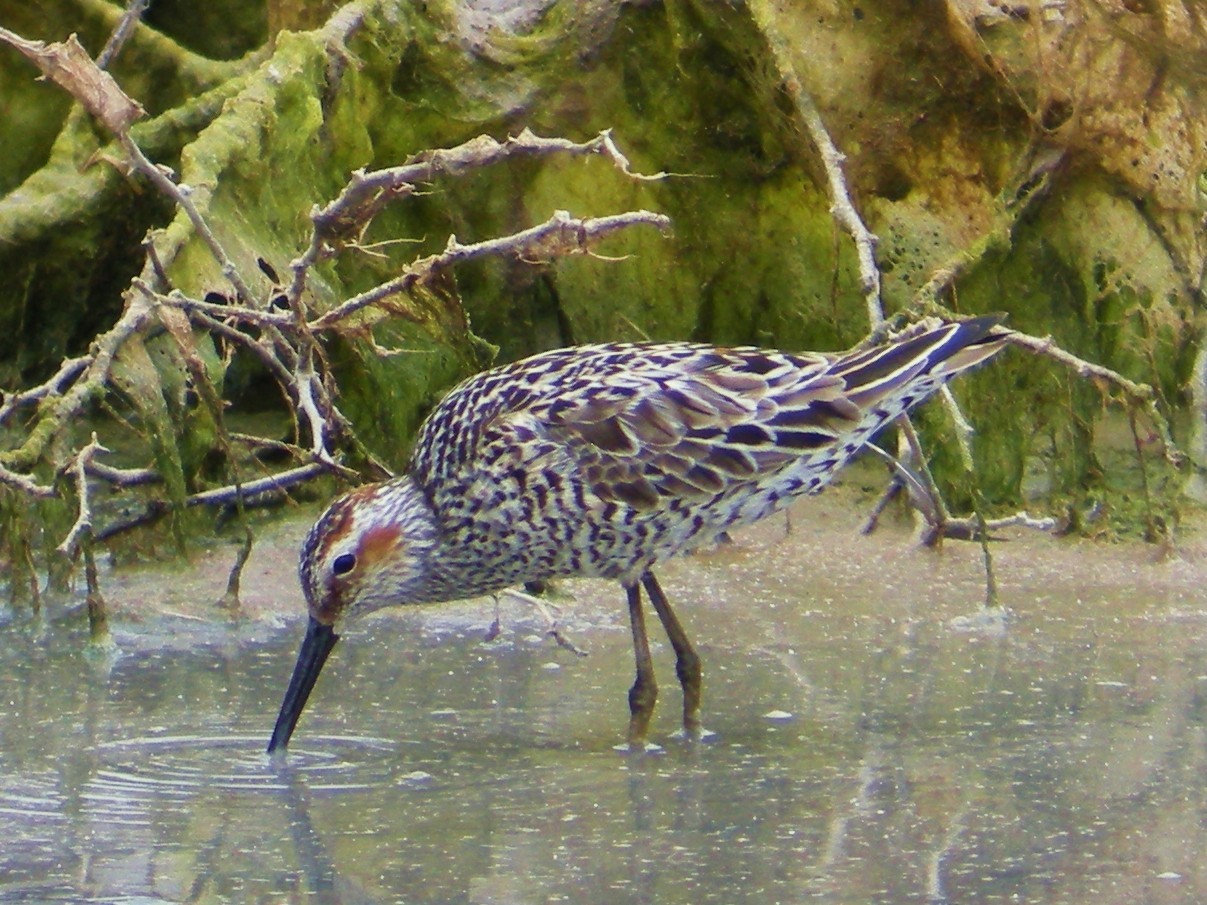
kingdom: Animalia
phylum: Chordata
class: Aves
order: Charadriiformes
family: Scolopacidae
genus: Calidris
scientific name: Calidris himantopus
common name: Stilt sandpiper
